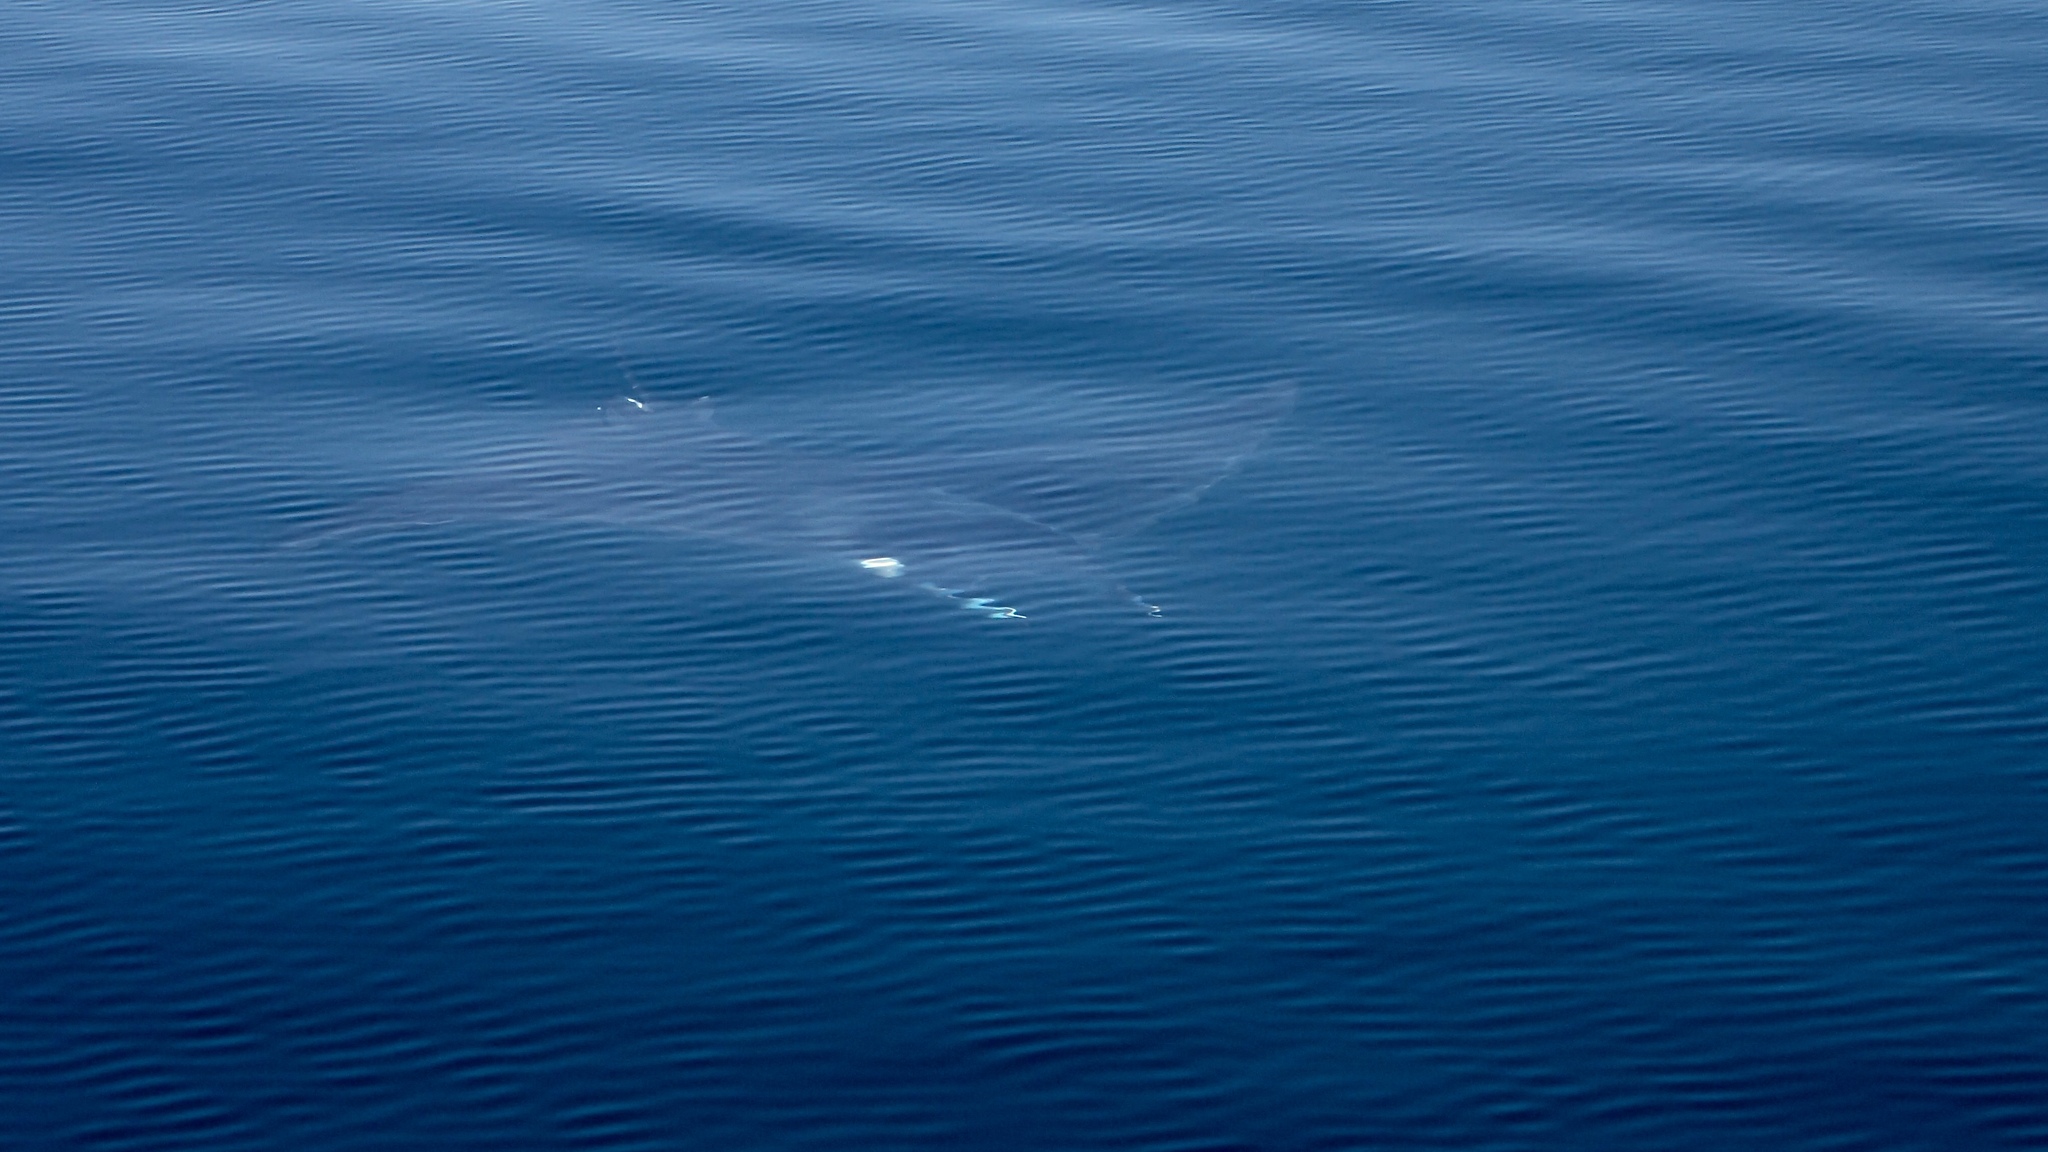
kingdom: Animalia
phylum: Chordata
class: Elasmobranchii
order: Myliobatiformes
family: Myliobatidae
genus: Mobula
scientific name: Mobula mobular
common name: Devil ray
